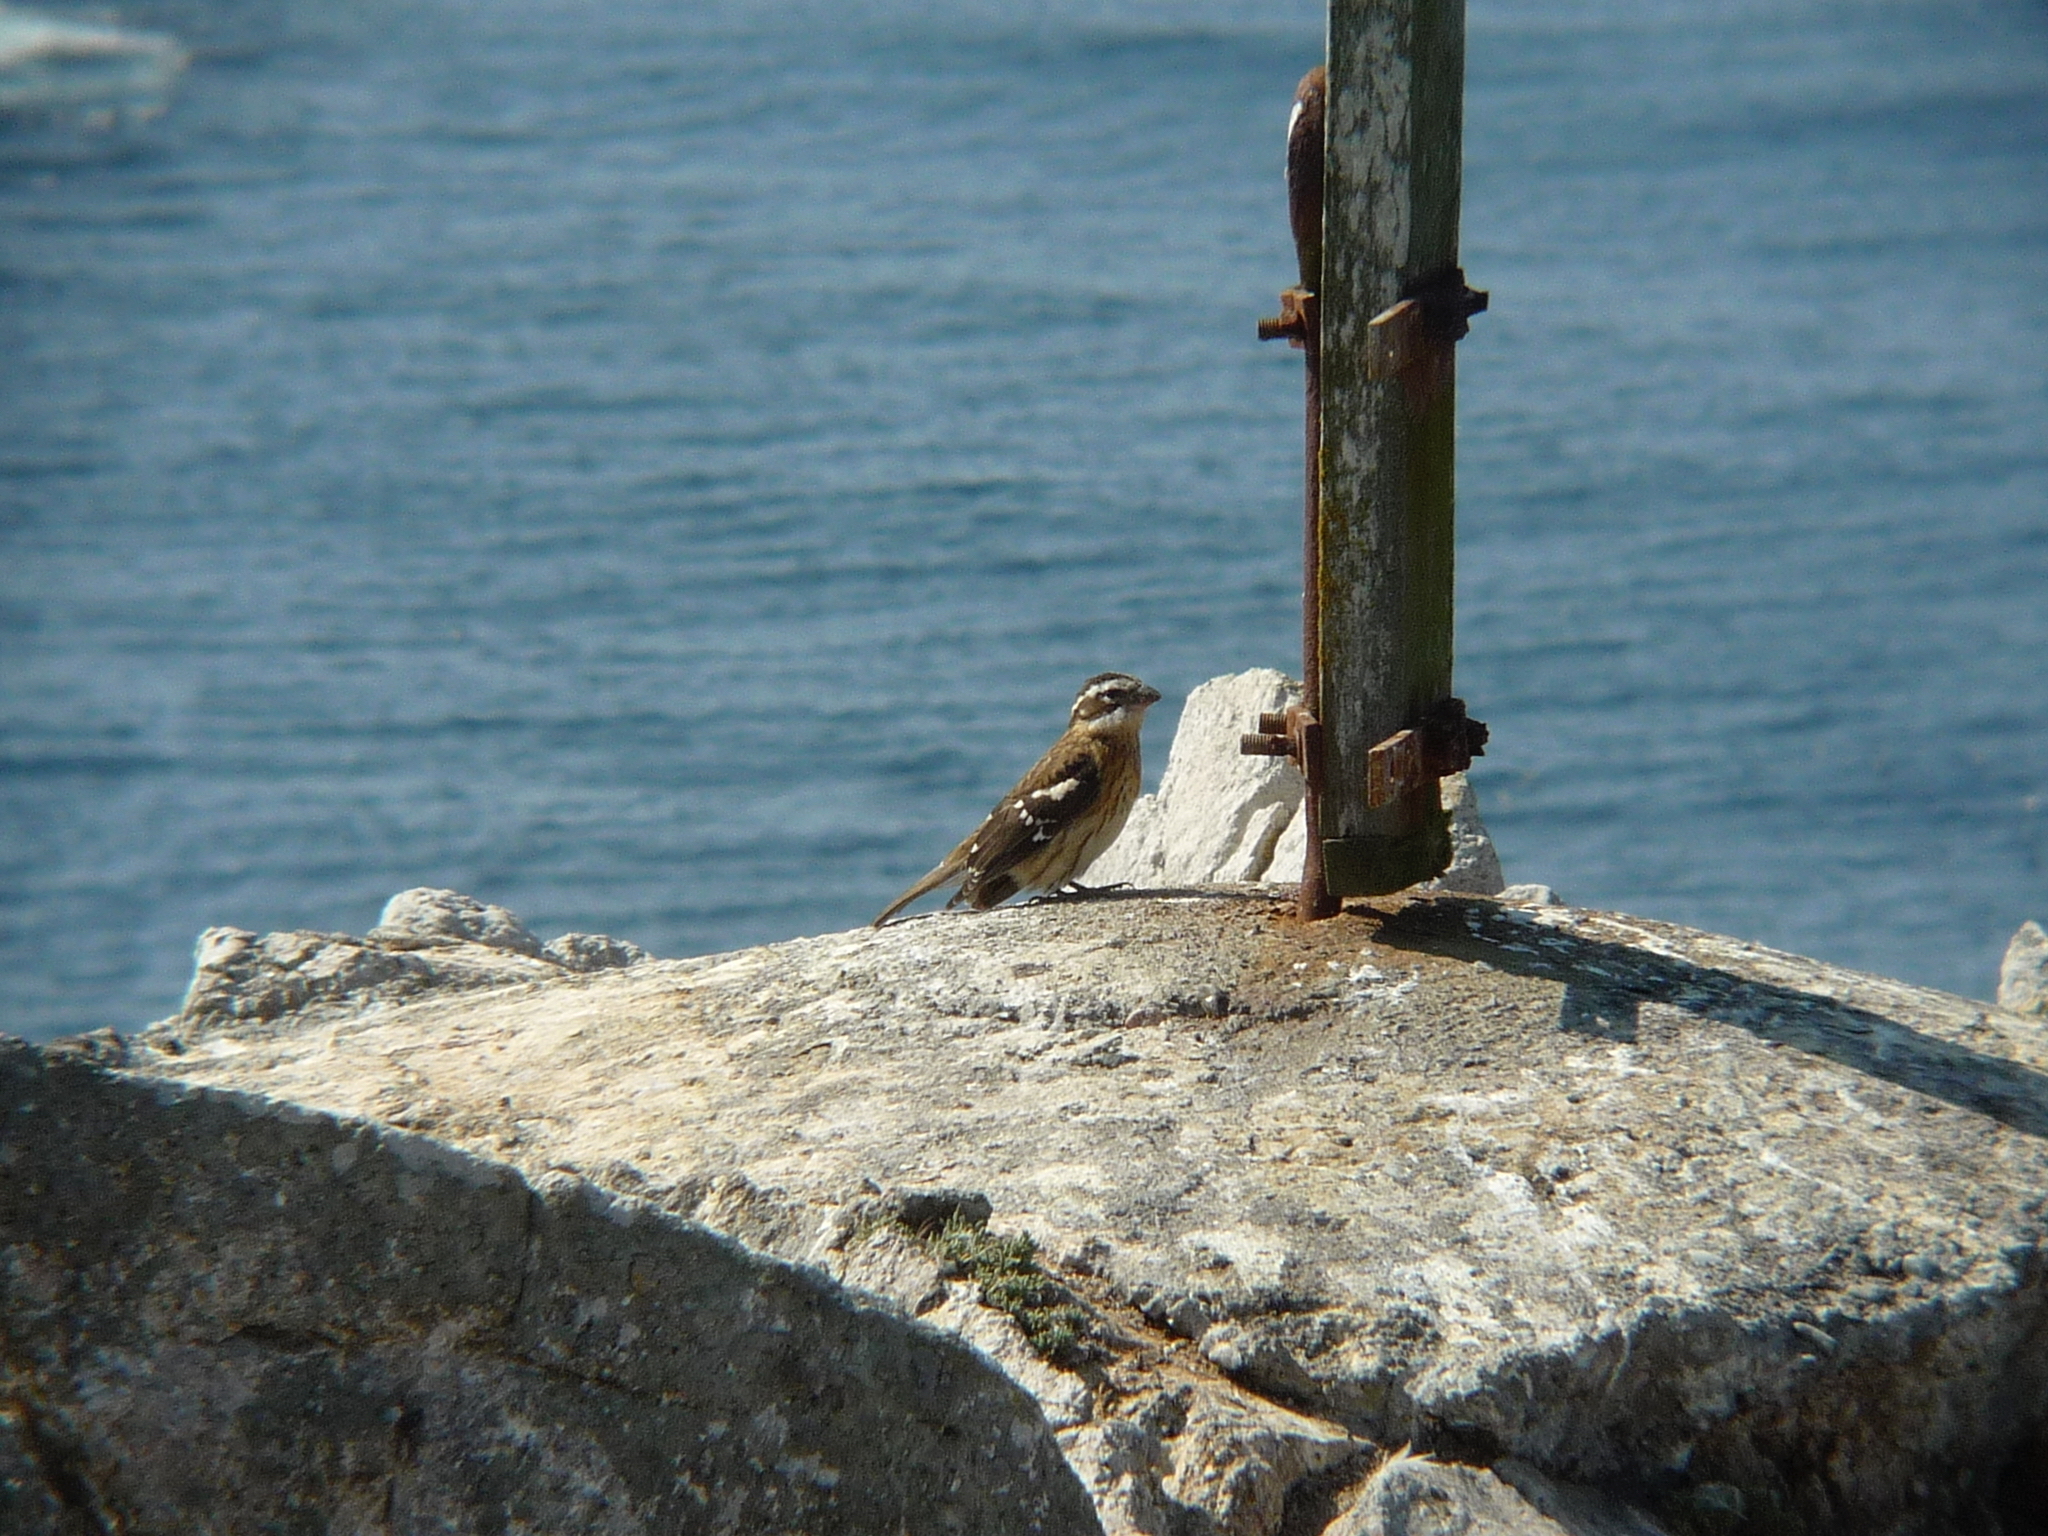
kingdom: Animalia
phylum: Chordata
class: Aves
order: Passeriformes
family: Cardinalidae
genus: Pheucticus
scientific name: Pheucticus melanocephalus
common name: Black-headed grosbeak
